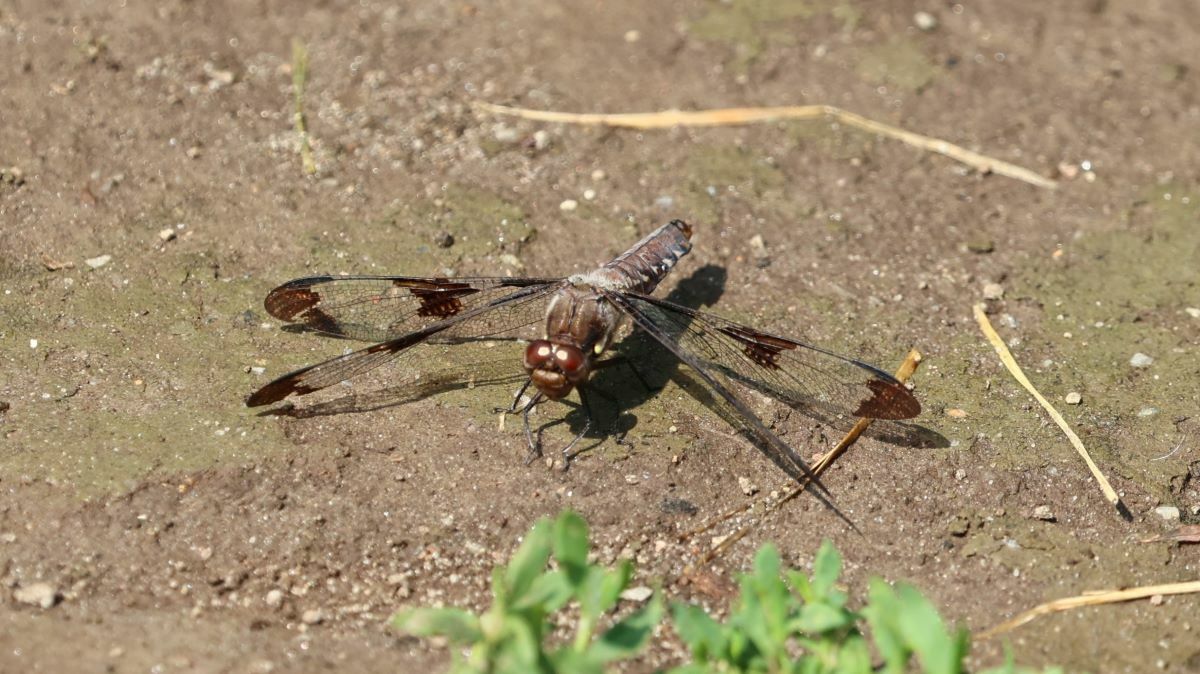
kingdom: Animalia
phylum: Arthropoda
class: Insecta
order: Odonata
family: Libellulidae
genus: Plathemis
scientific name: Plathemis lydia
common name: Common whitetail
